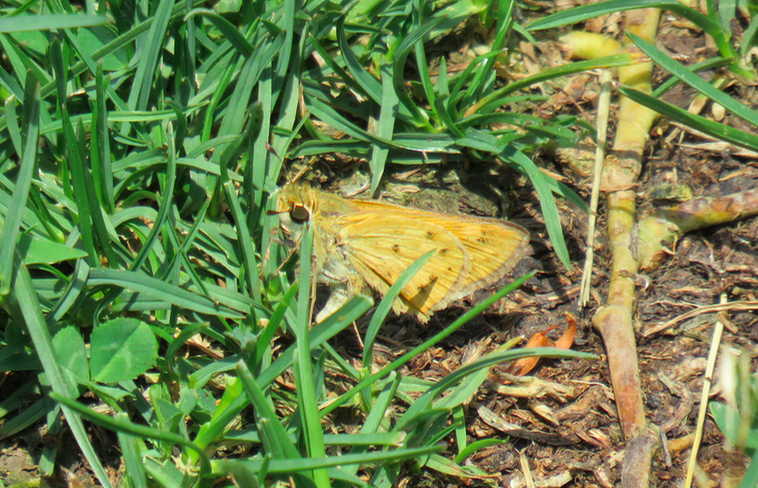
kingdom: Animalia
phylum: Arthropoda
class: Insecta
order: Lepidoptera
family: Hesperiidae
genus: Hylephila
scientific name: Hylephila phyleus
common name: Fiery skipper
